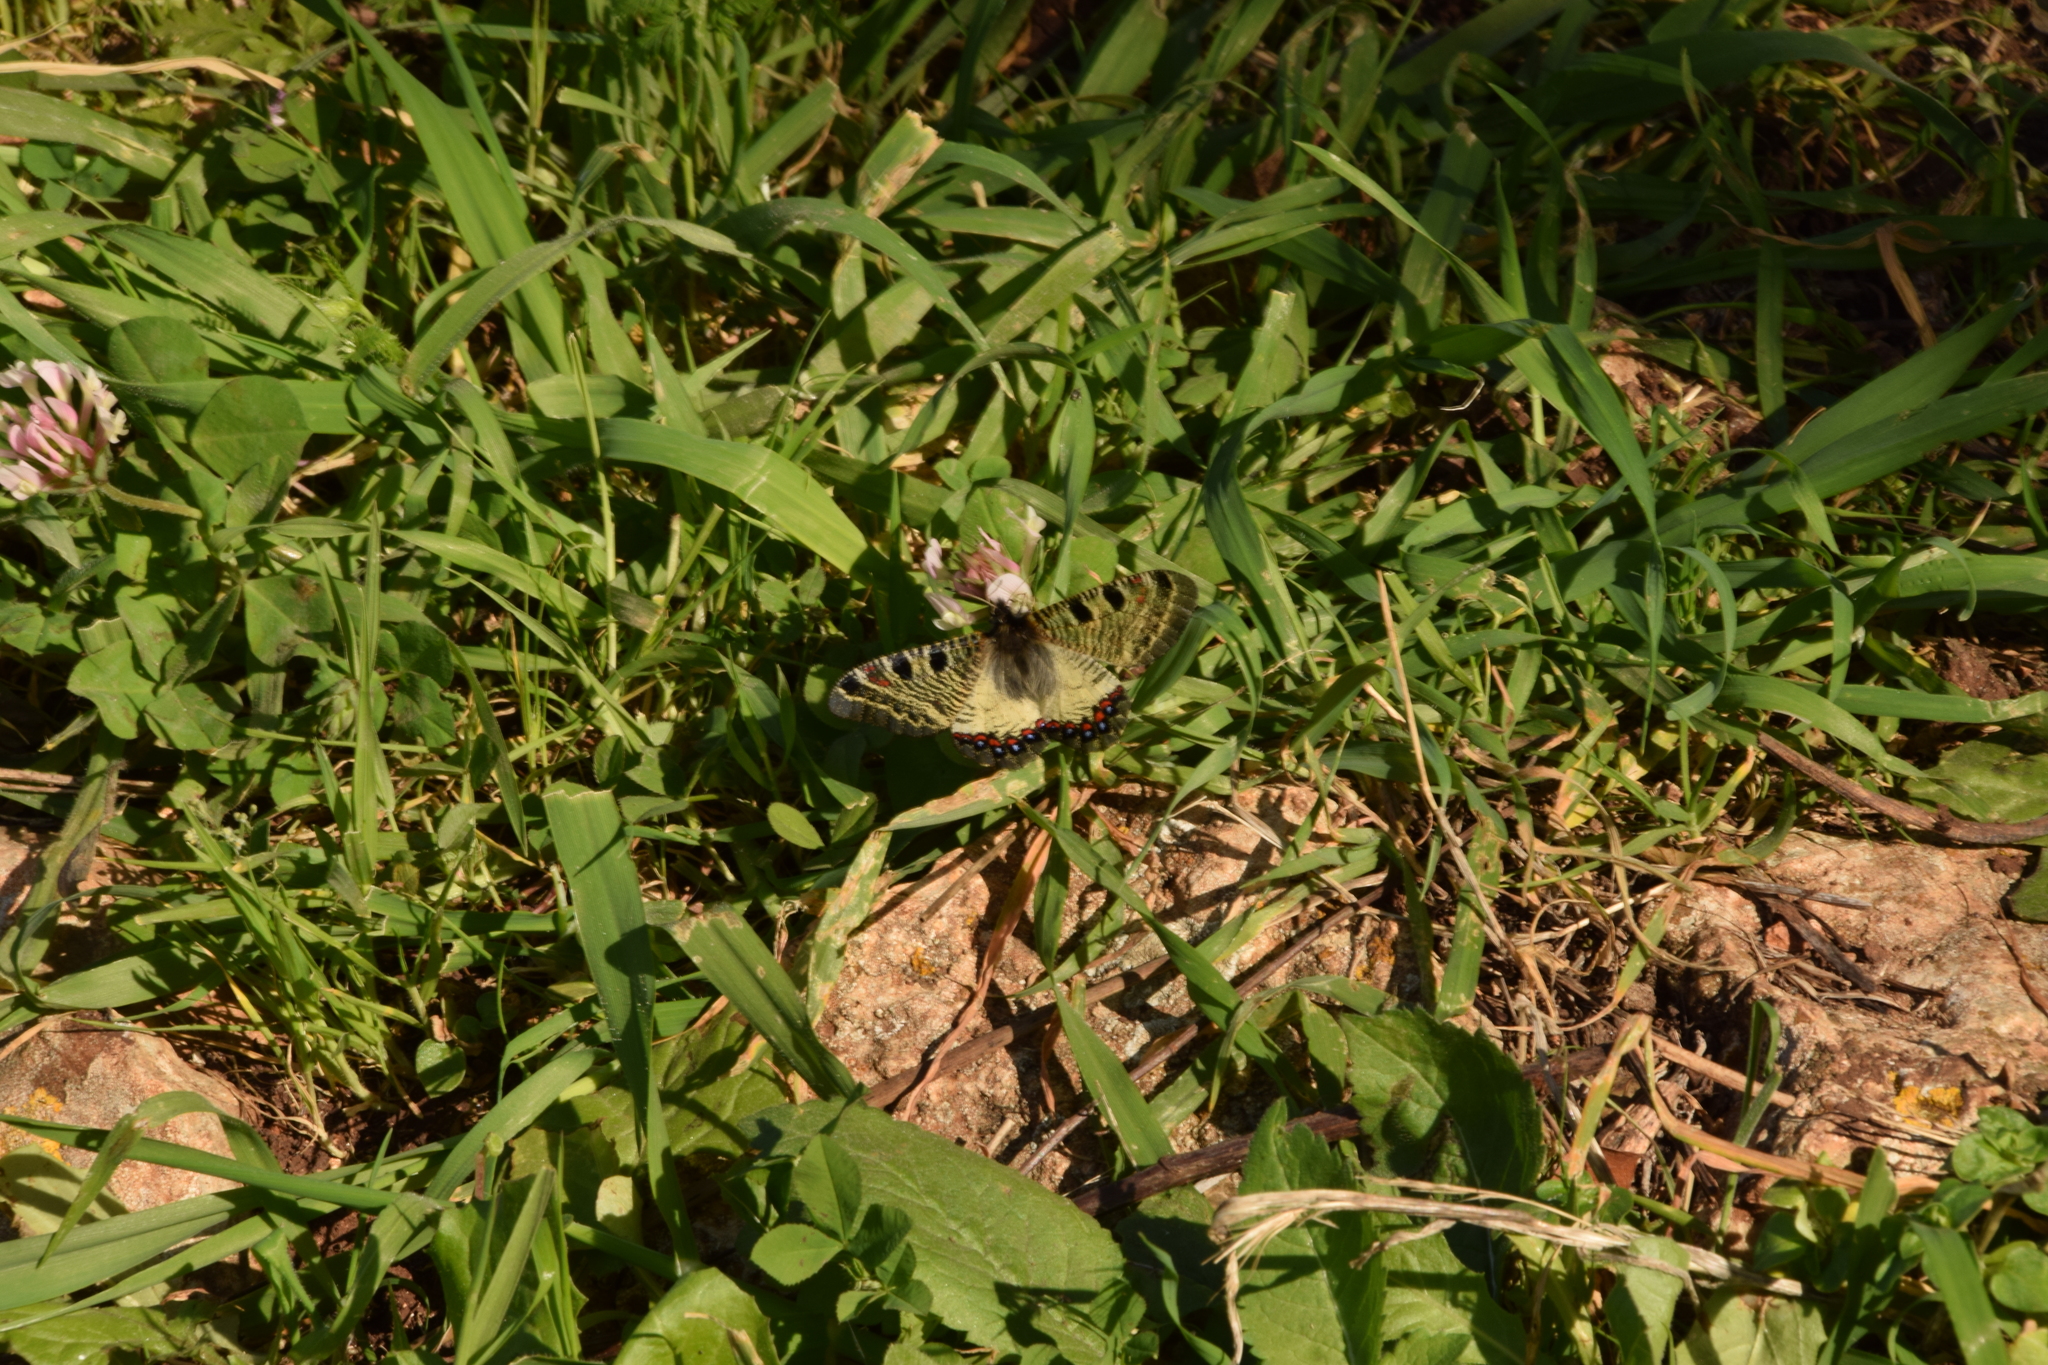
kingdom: Animalia
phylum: Arthropoda
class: Insecta
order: Lepidoptera
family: Papilionidae
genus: Archon
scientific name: Archon apollinus
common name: False apollo
